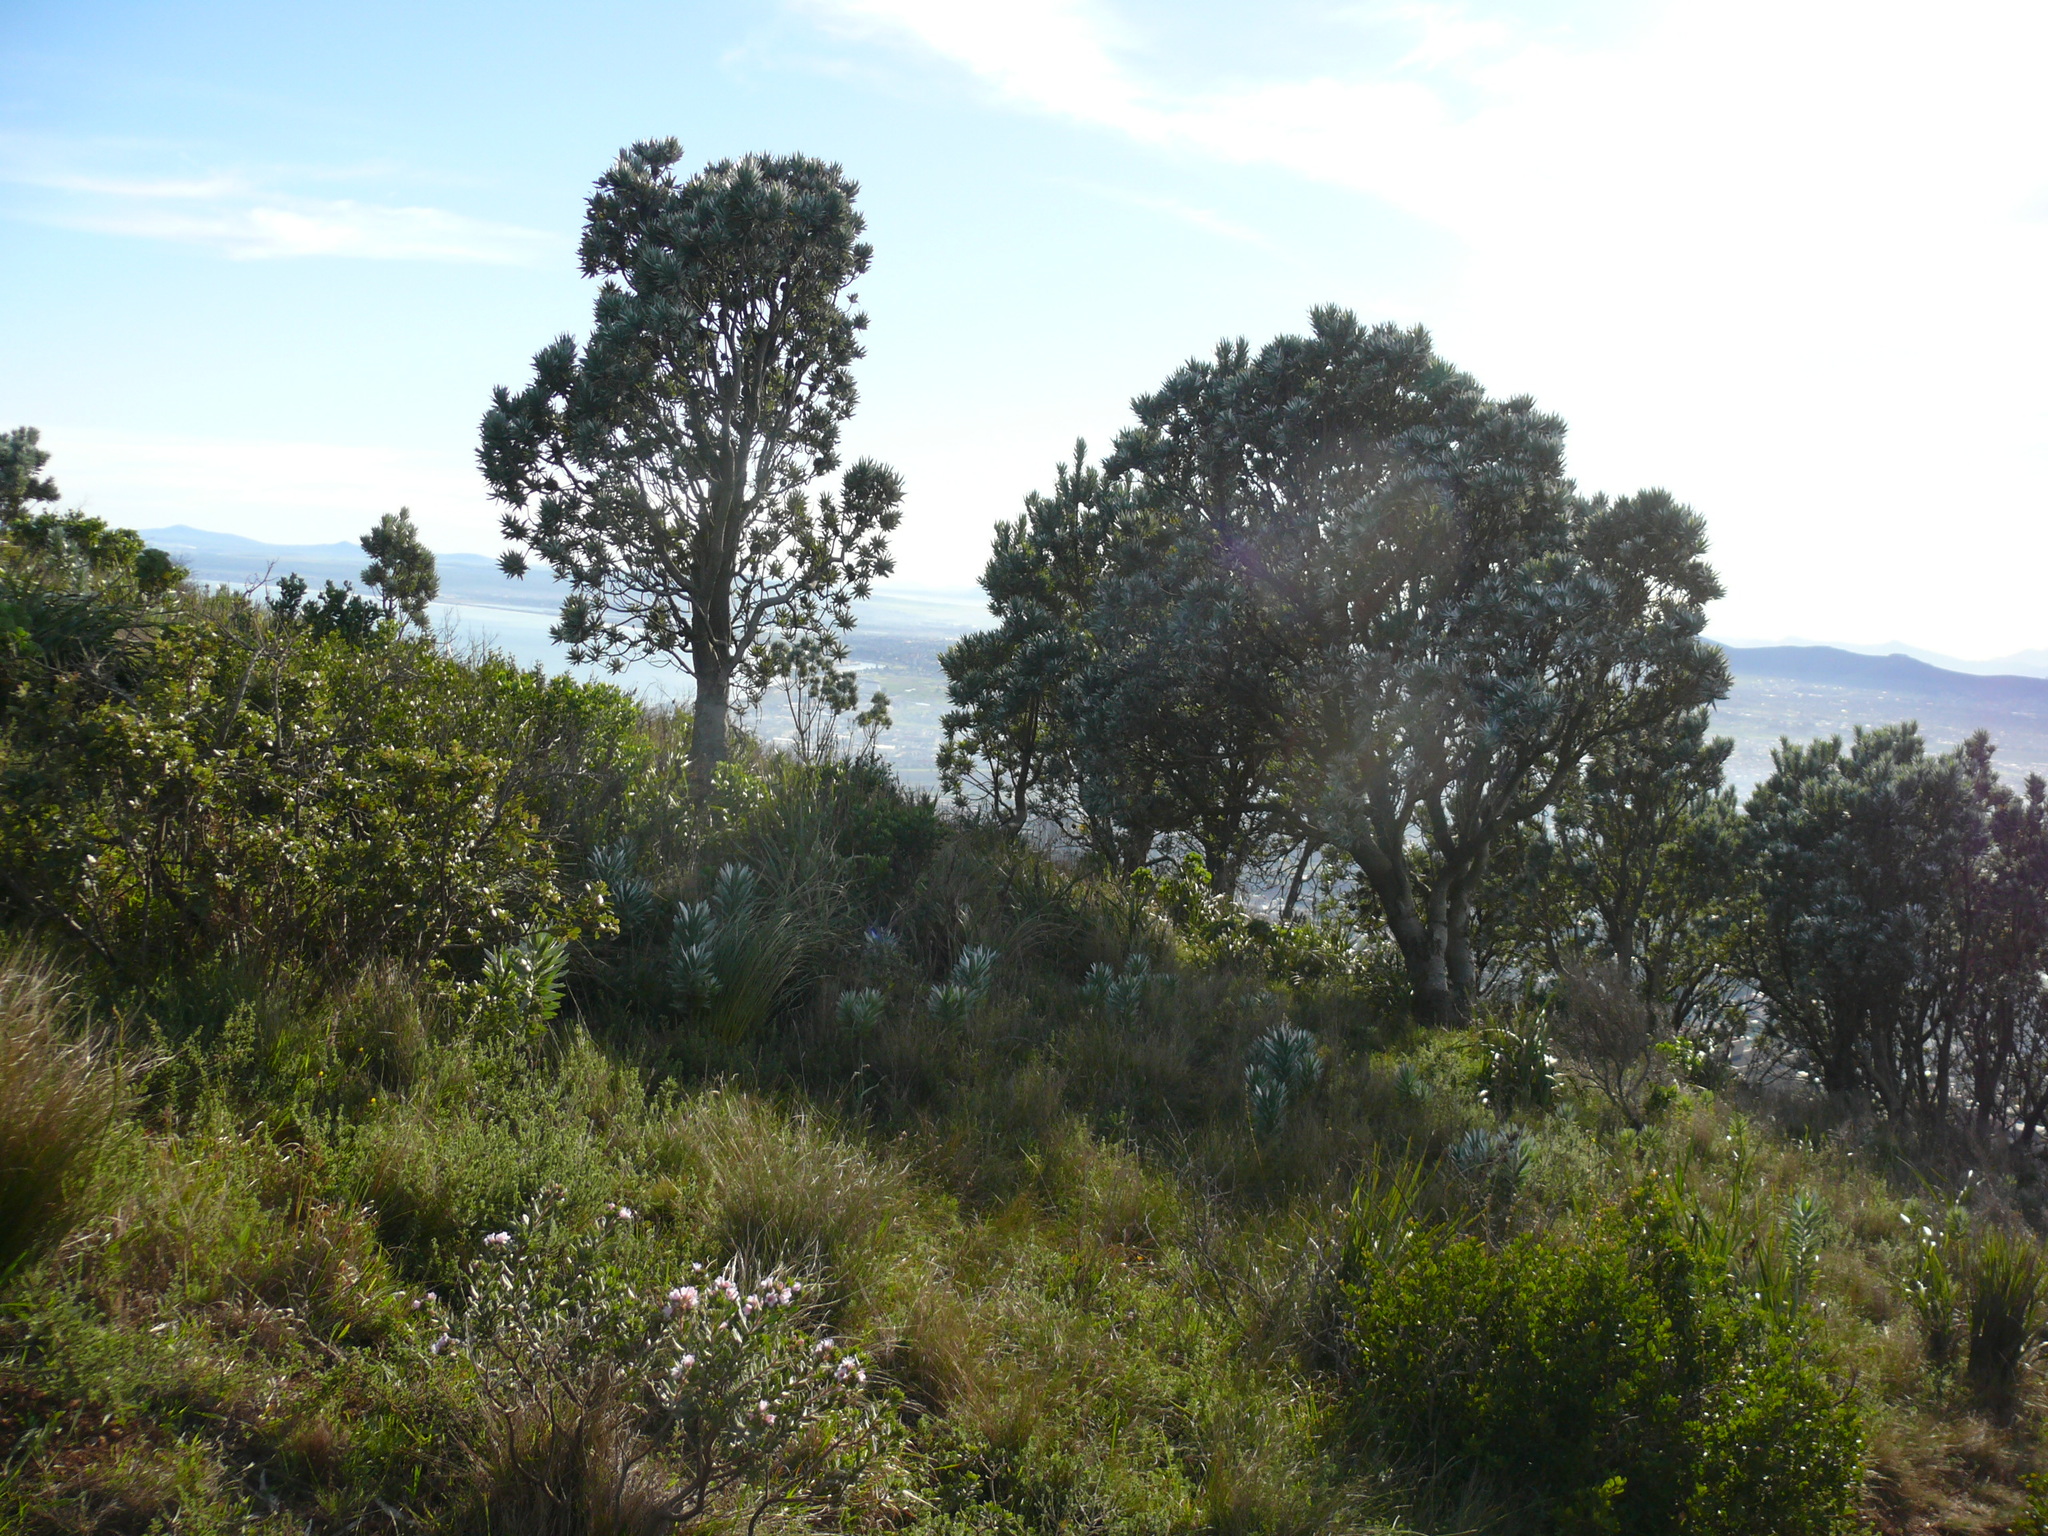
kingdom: Plantae
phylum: Tracheophyta
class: Magnoliopsida
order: Proteales
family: Proteaceae
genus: Leucadendron
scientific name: Leucadendron argenteum
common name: Cape silver tree
